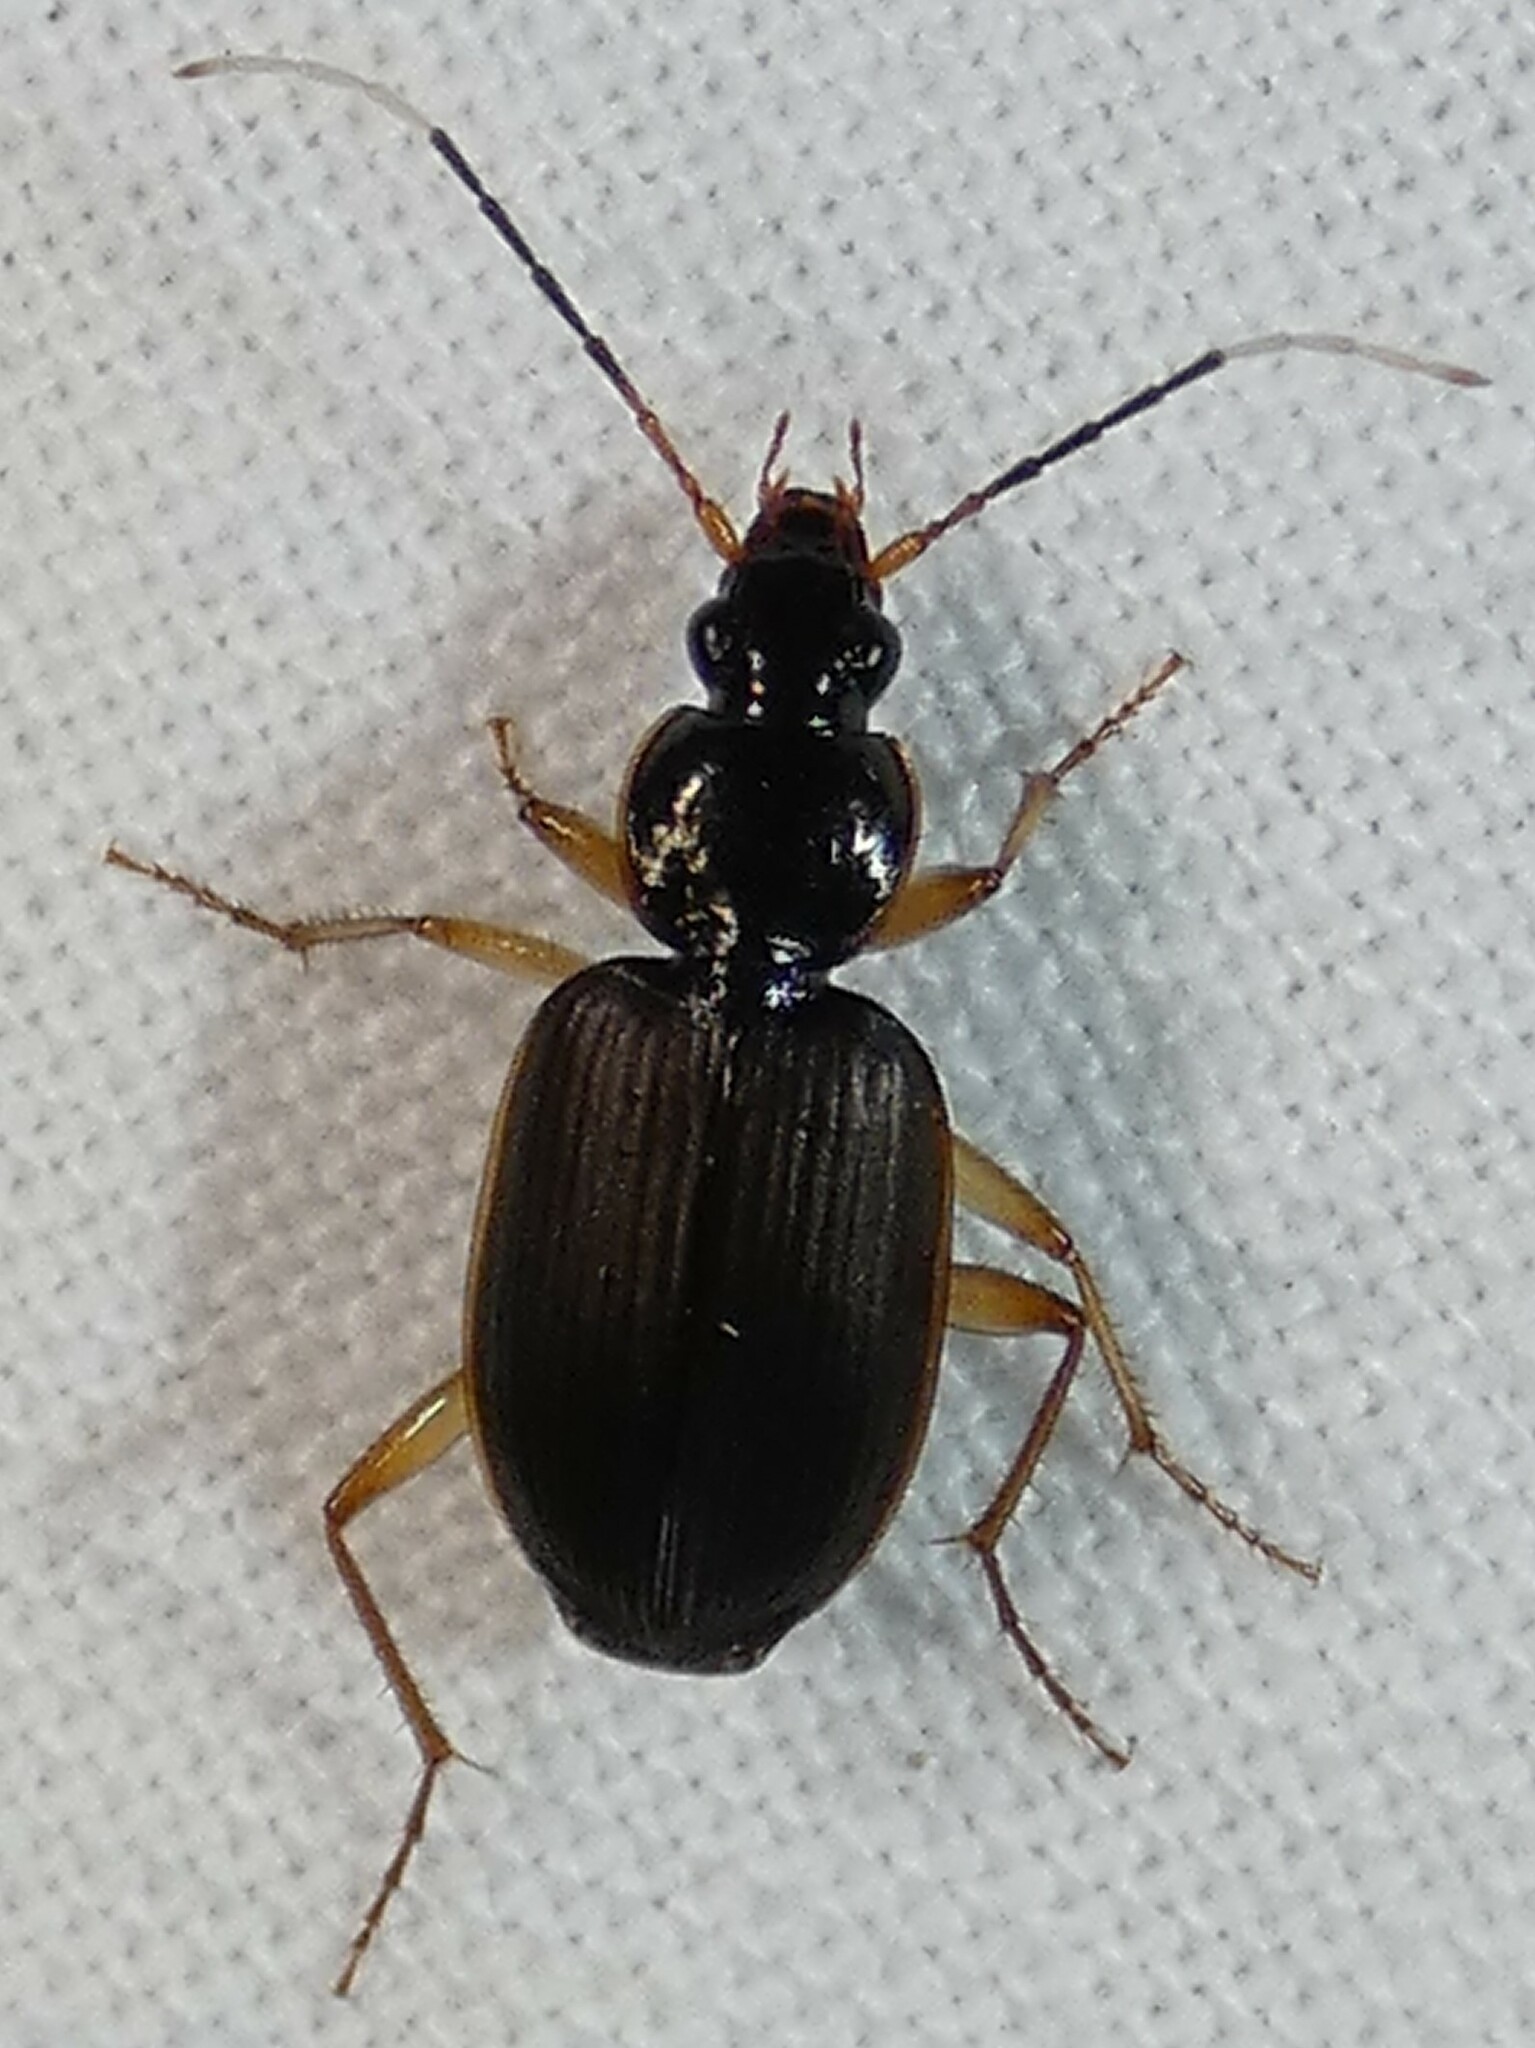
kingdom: Animalia
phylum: Arthropoda
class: Insecta
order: Coleoptera
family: Carabidae
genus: Tetraleucus
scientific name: Tetraleucus picticornis
